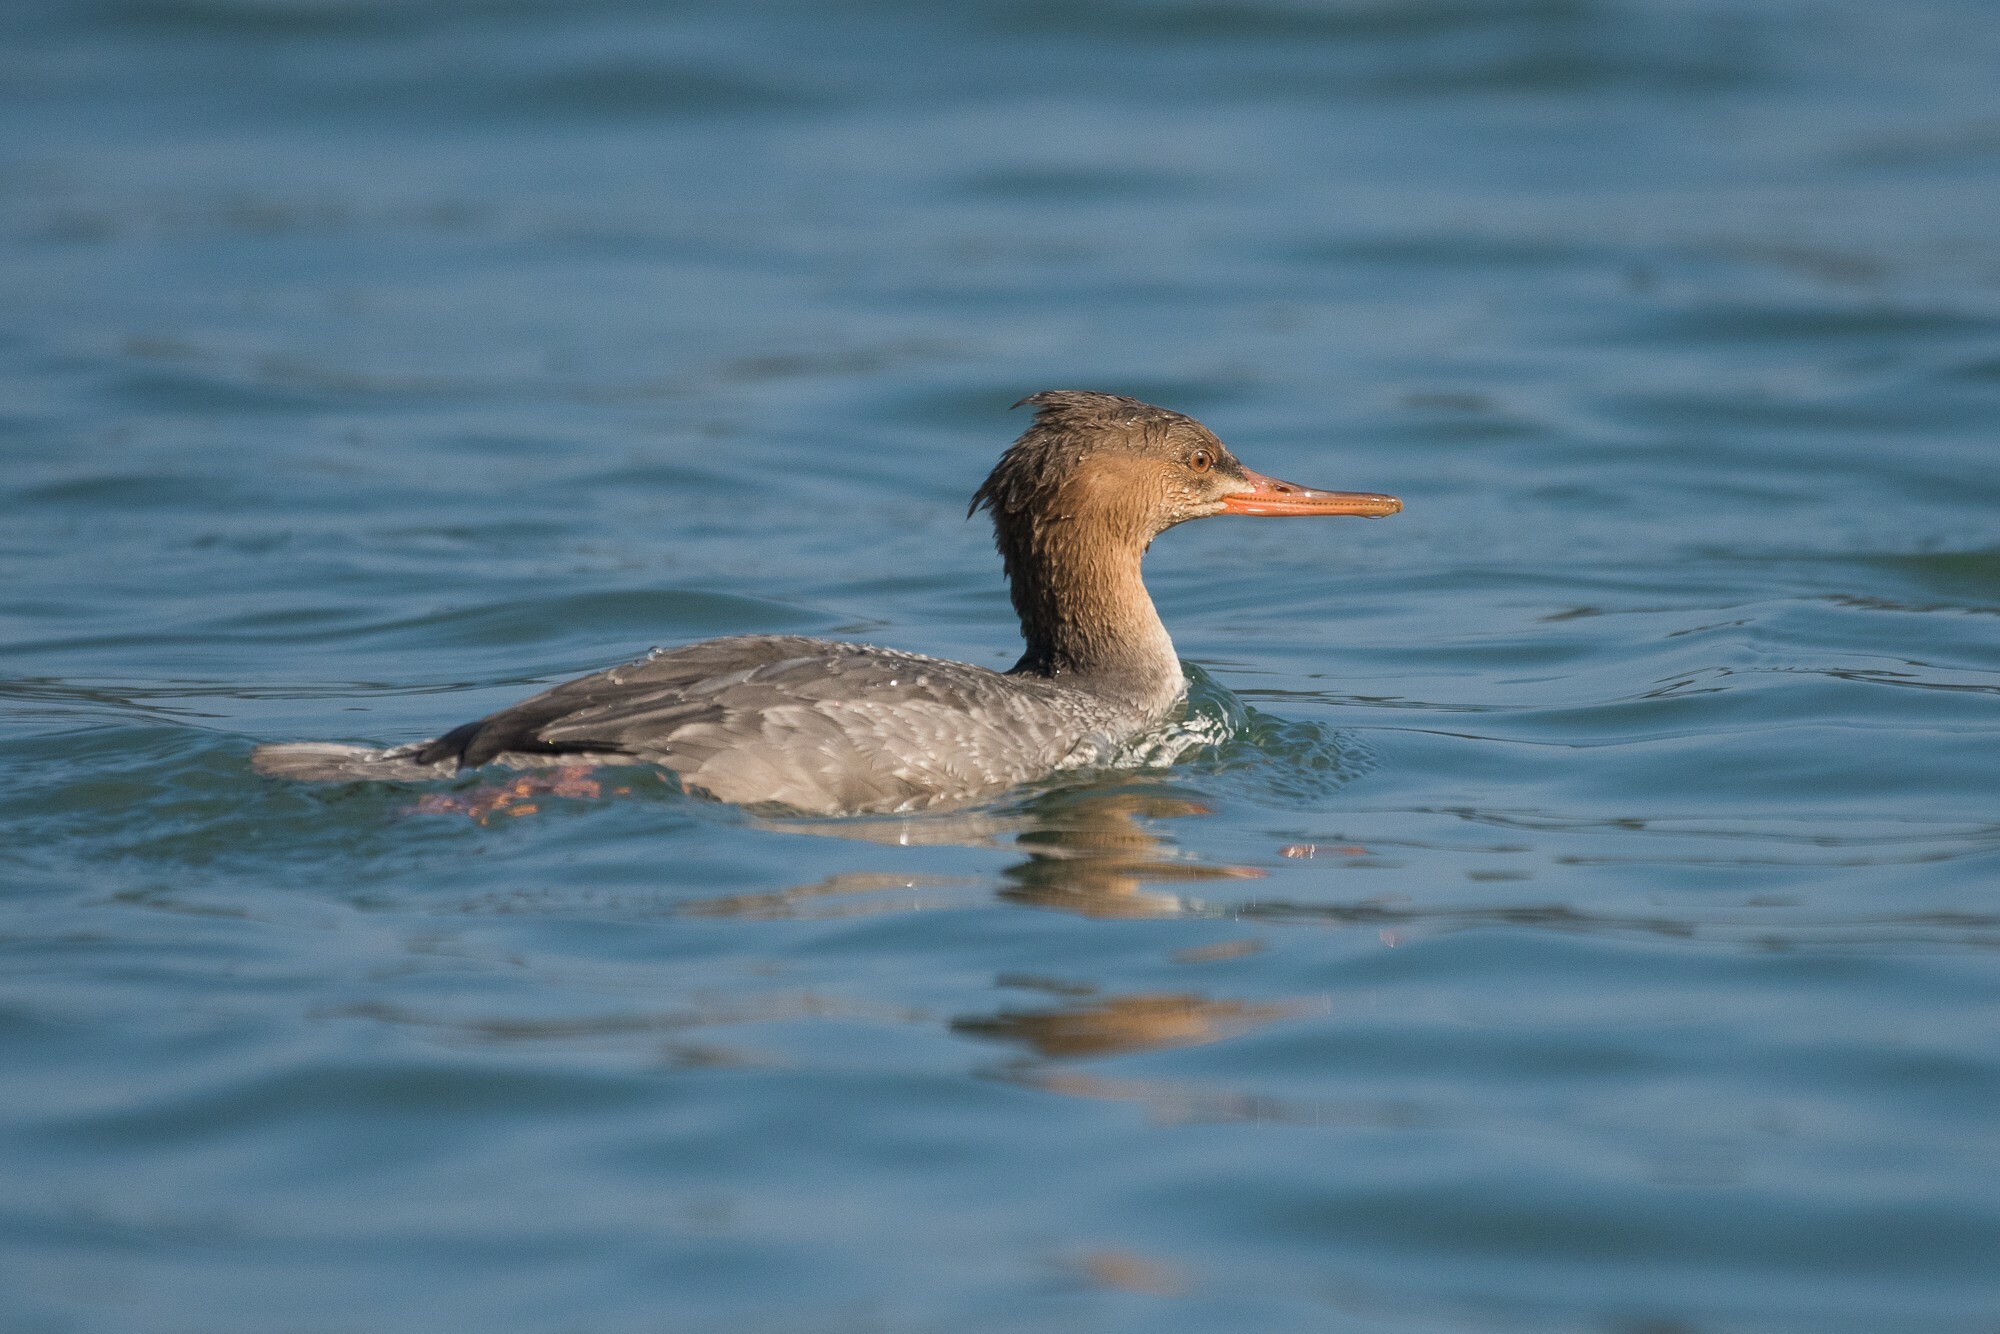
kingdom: Animalia
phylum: Chordata
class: Aves
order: Anseriformes
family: Anatidae
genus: Mergus
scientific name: Mergus serrator
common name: Red-breasted merganser
